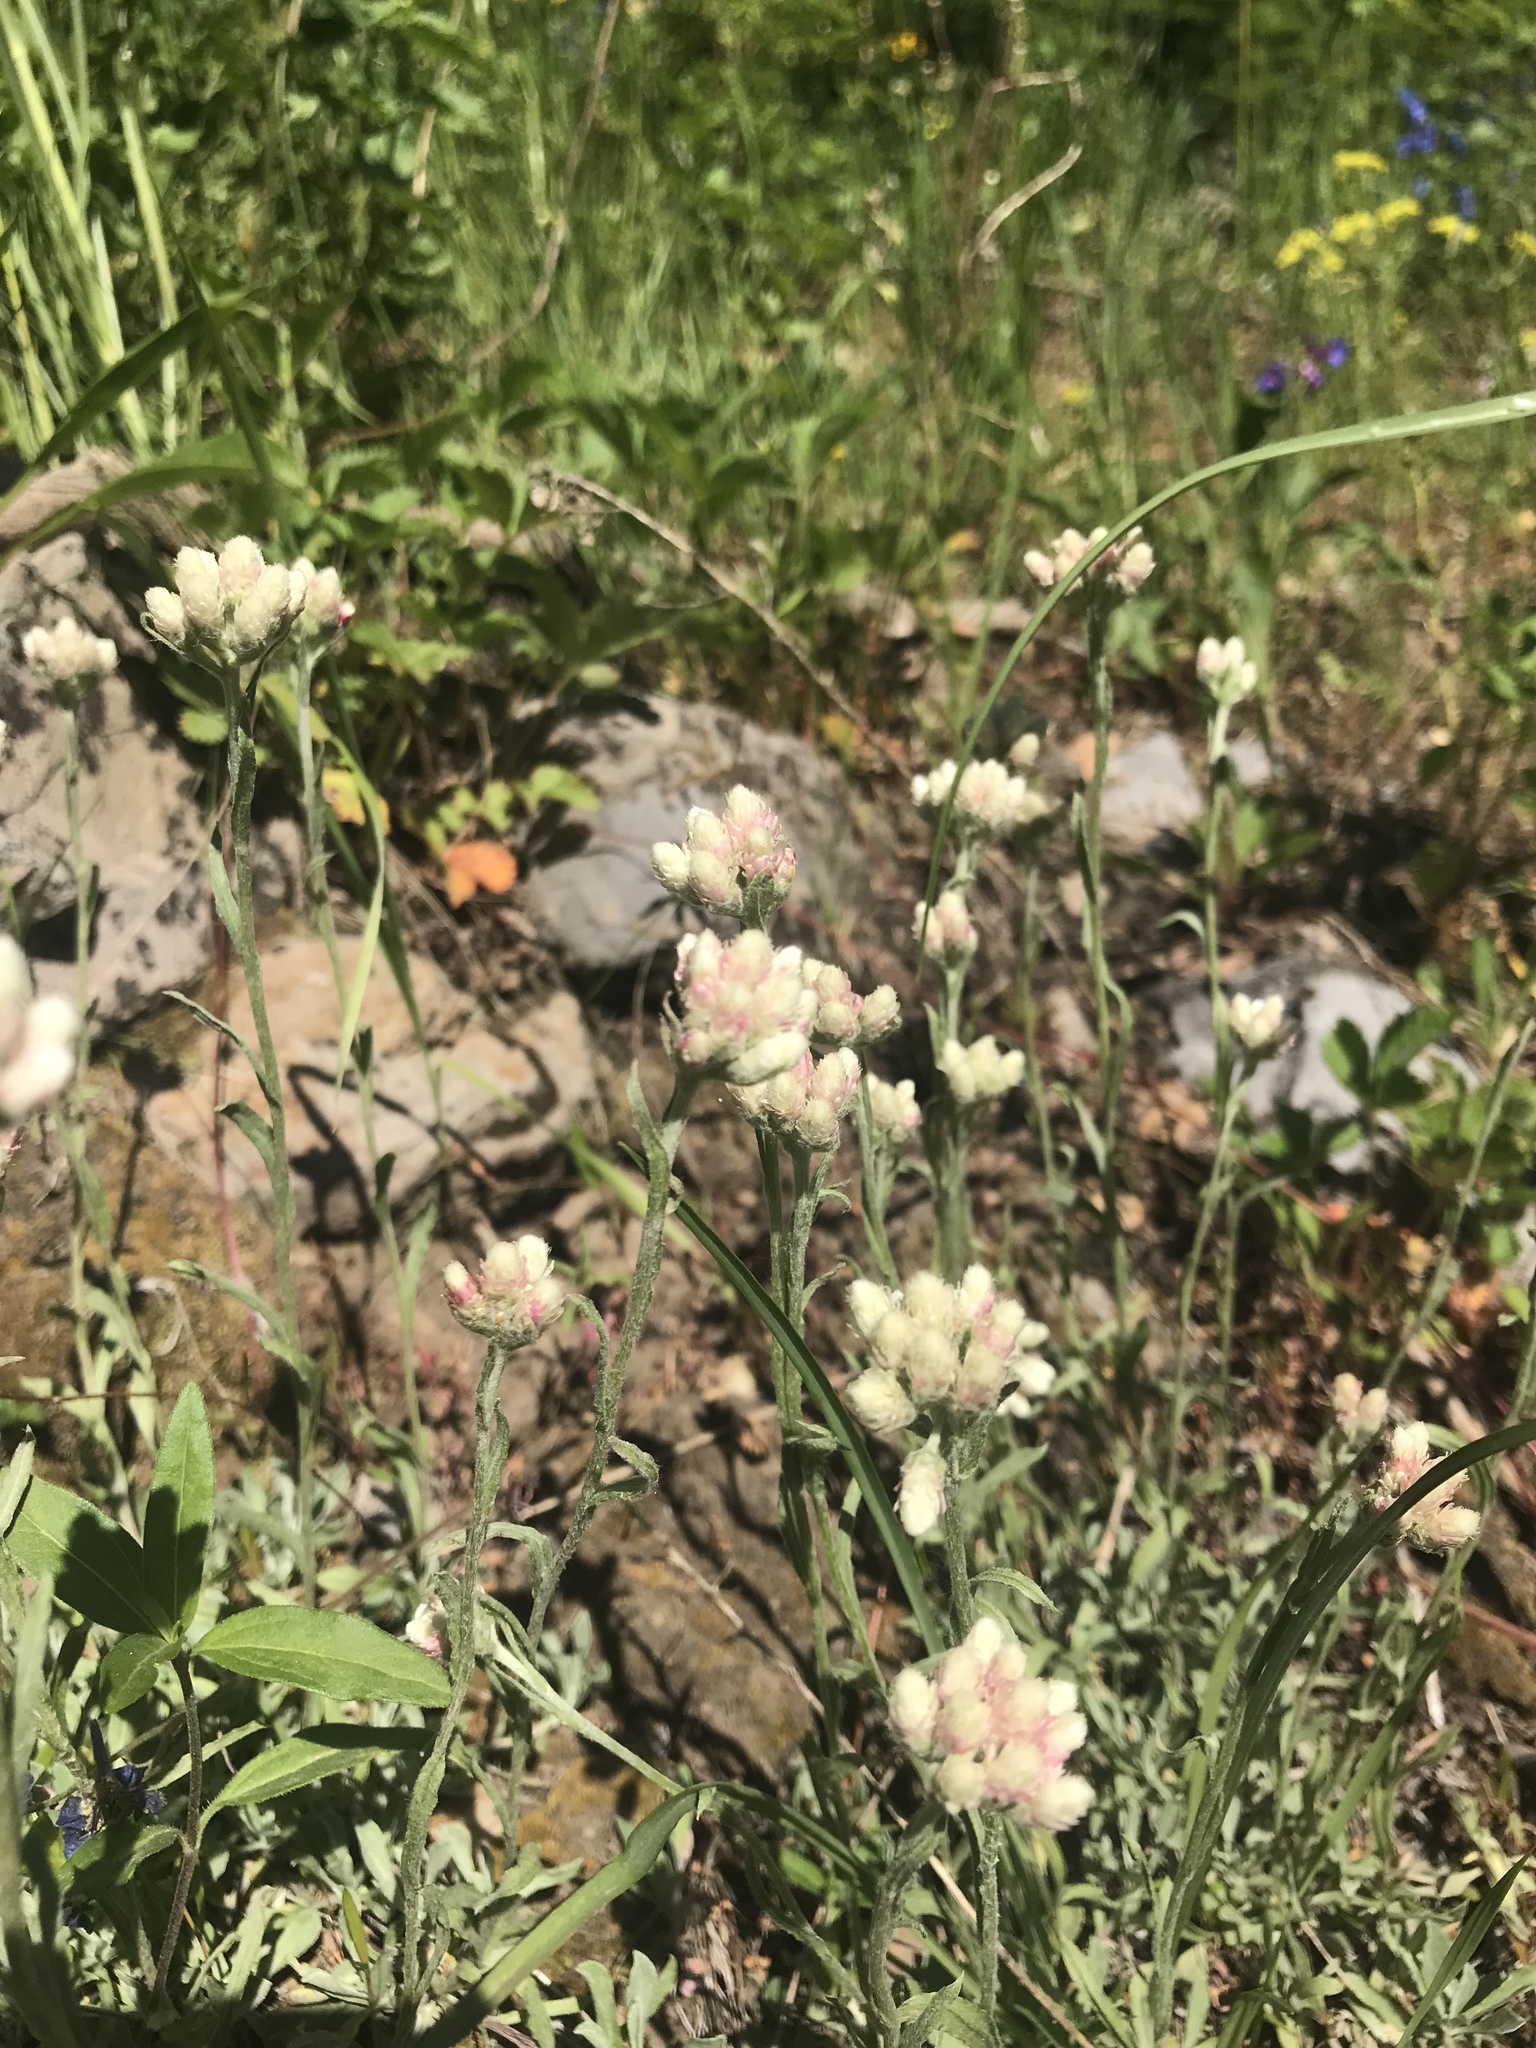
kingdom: Plantae
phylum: Tracheophyta
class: Magnoliopsida
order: Asterales
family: Asteraceae
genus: Antennaria
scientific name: Antennaria rosea
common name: Rosy pussytoes
